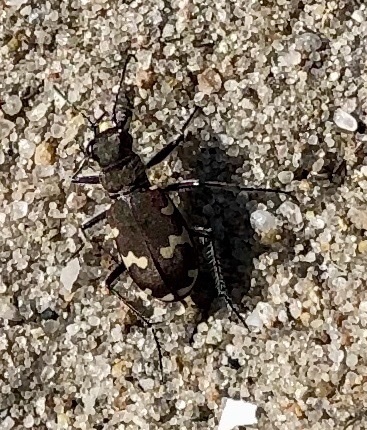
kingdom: Animalia
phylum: Arthropoda
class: Insecta
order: Coleoptera
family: Carabidae
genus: Cicindela
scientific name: Cicindela hybrida
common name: Northern dune tiger beetle
